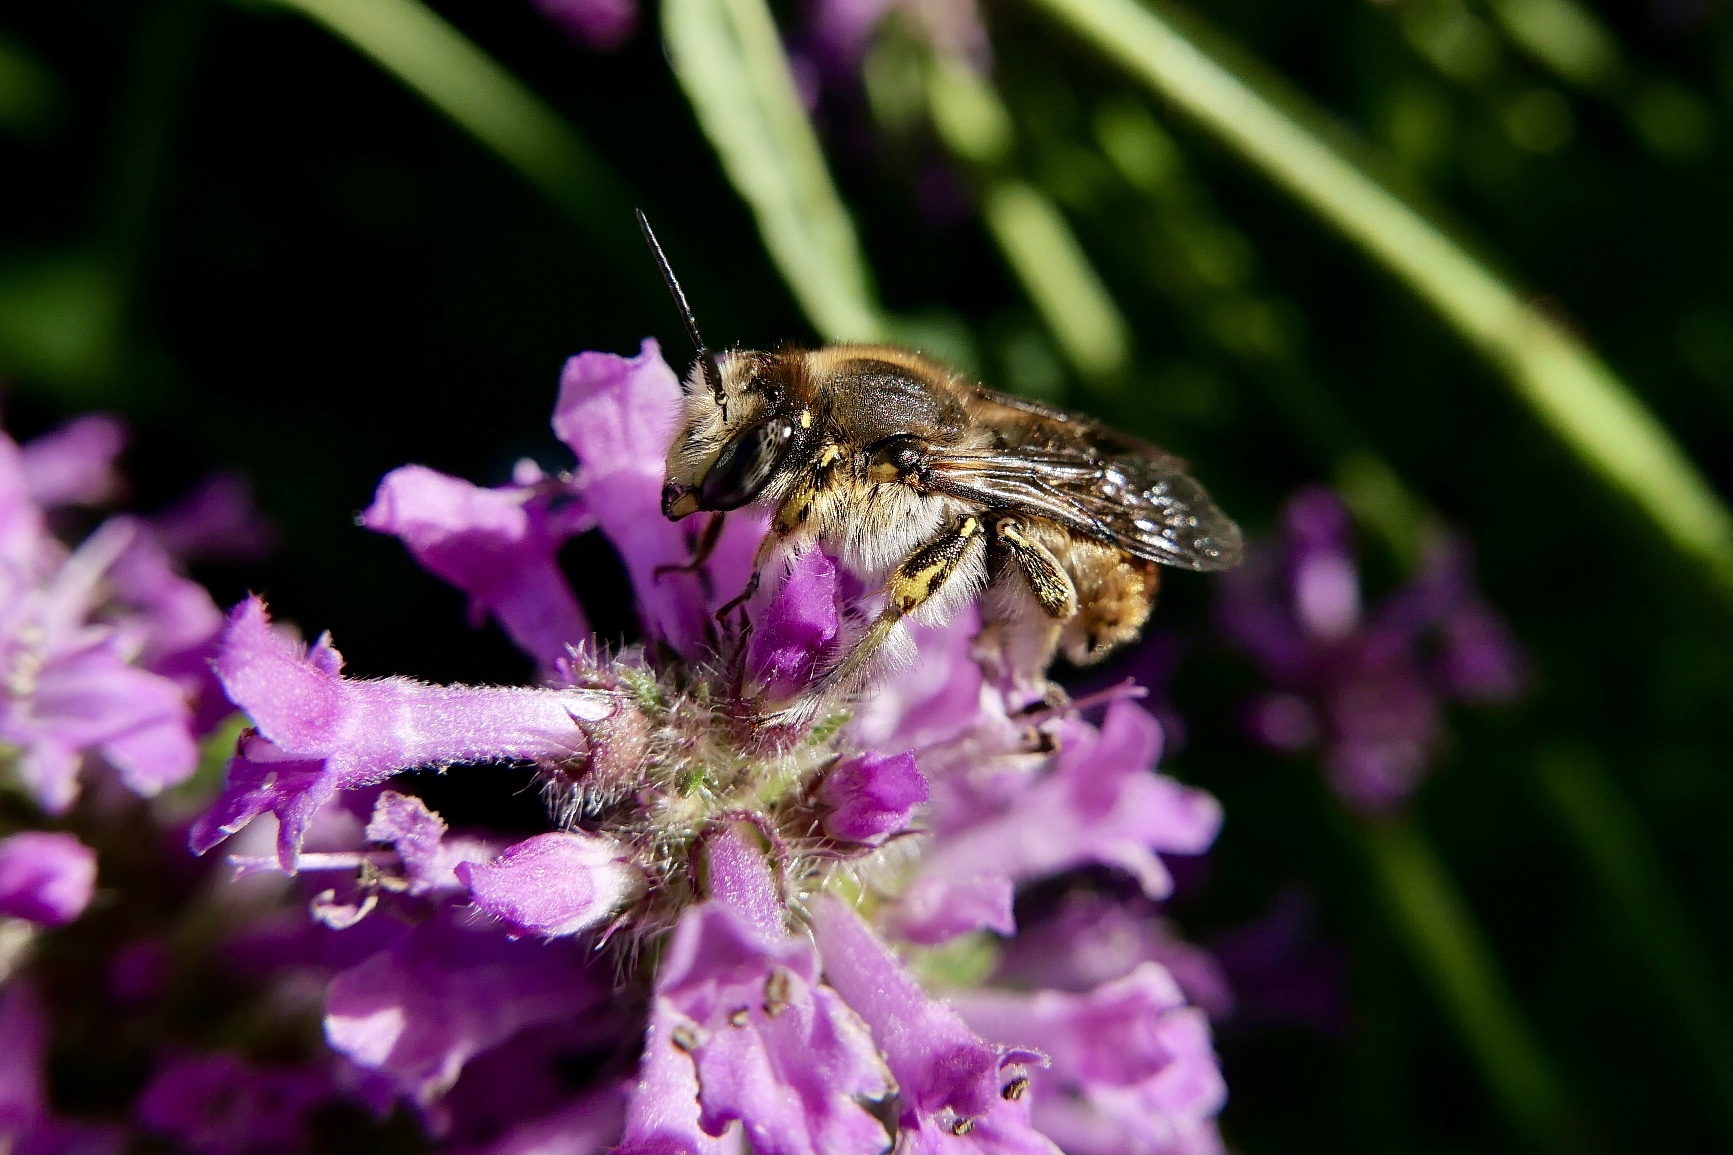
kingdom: Animalia
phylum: Arthropoda
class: Insecta
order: Hymenoptera
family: Megachilidae
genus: Anthidium
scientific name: Anthidium manicatum
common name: Wool carder bee
